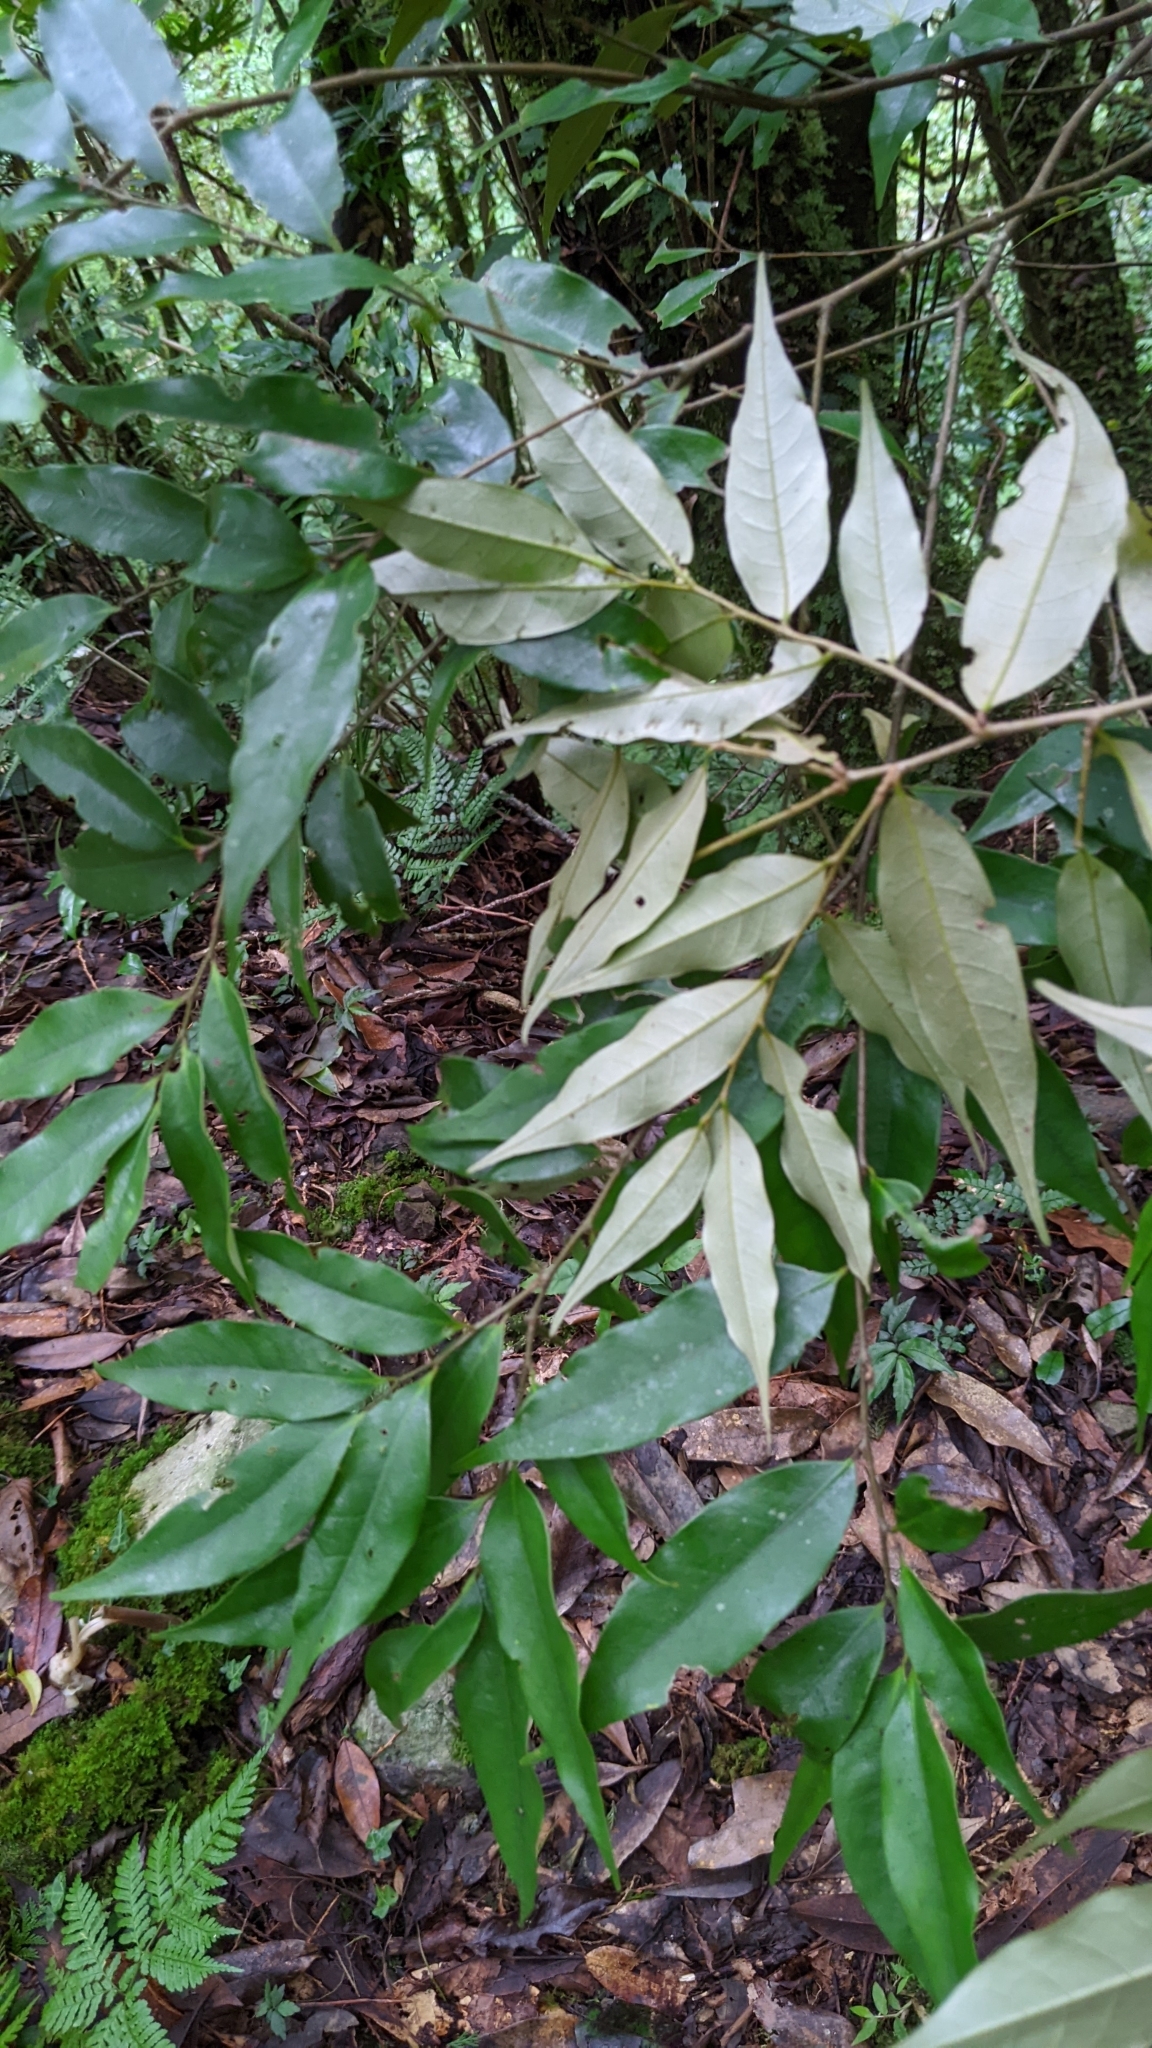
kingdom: Plantae
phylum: Tracheophyta
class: Magnoliopsida
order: Fagales
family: Fagaceae
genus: Castanopsis
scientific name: Castanopsis carlesii
